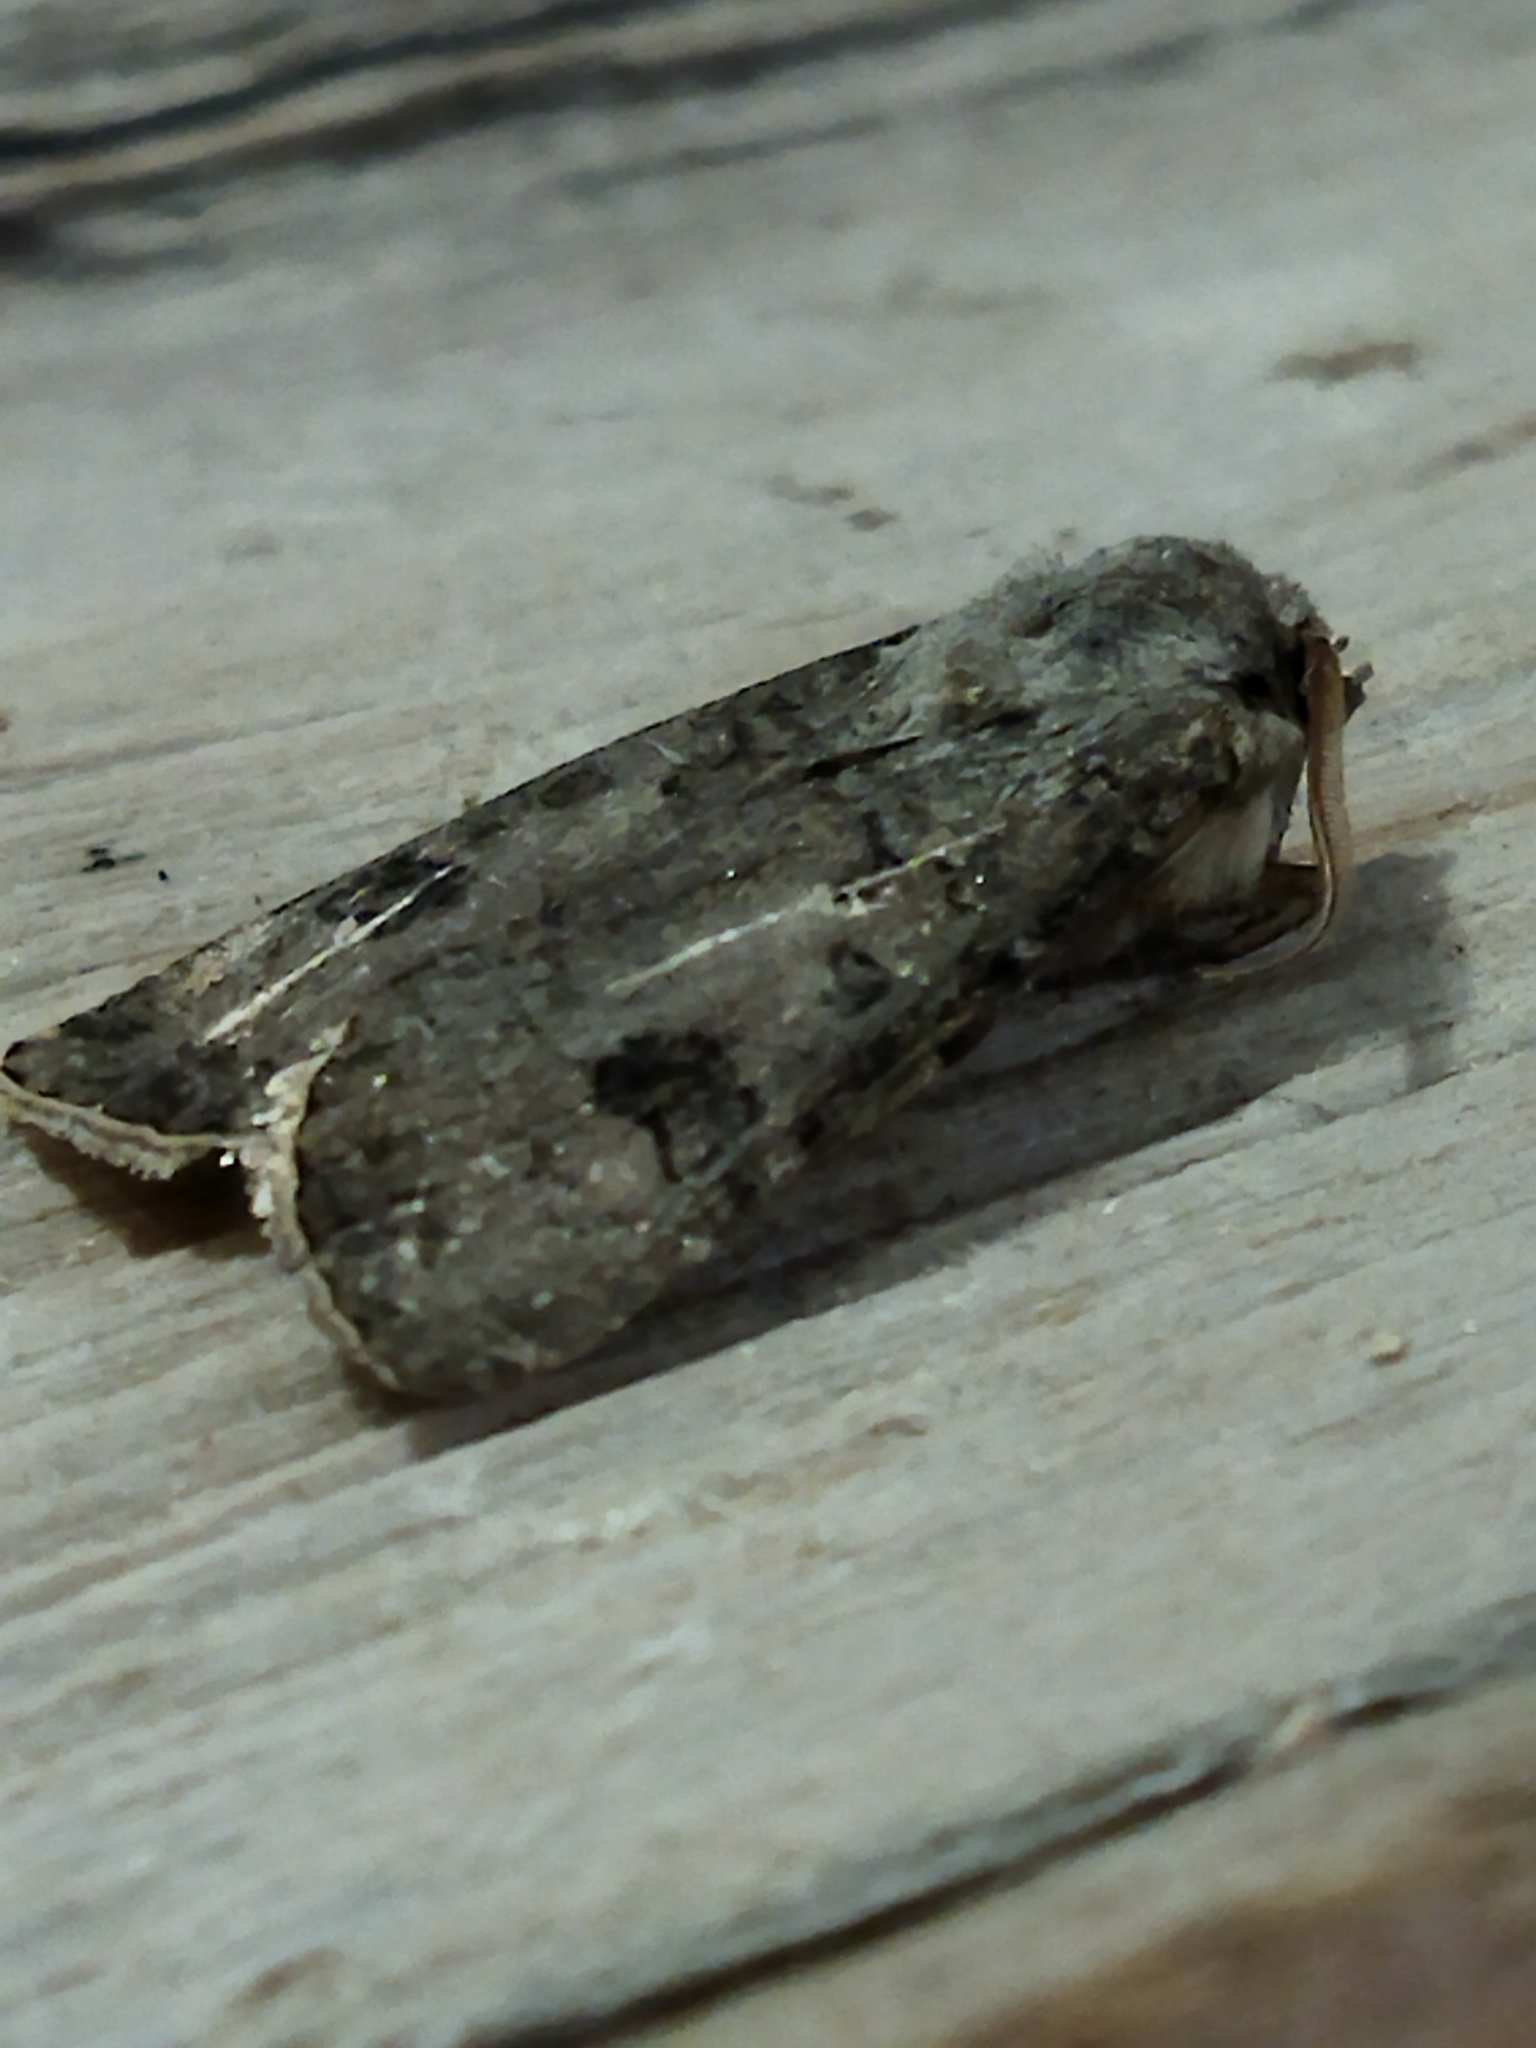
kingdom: Animalia
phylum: Arthropoda
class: Insecta
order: Lepidoptera
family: Noctuidae
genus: Agrotis
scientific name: Agrotis clavis
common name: Heart and club
